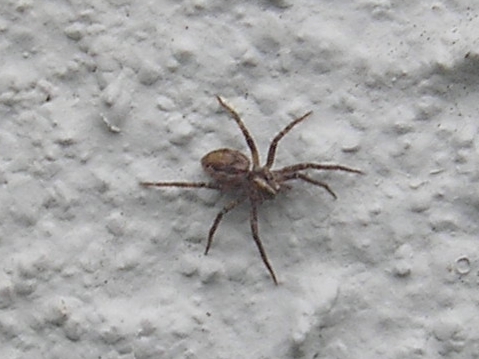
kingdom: Animalia
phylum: Arthropoda
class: Arachnida
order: Araneae
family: Pisauridae
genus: Pisaura
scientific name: Pisaura mirabilis
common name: Tent spider
